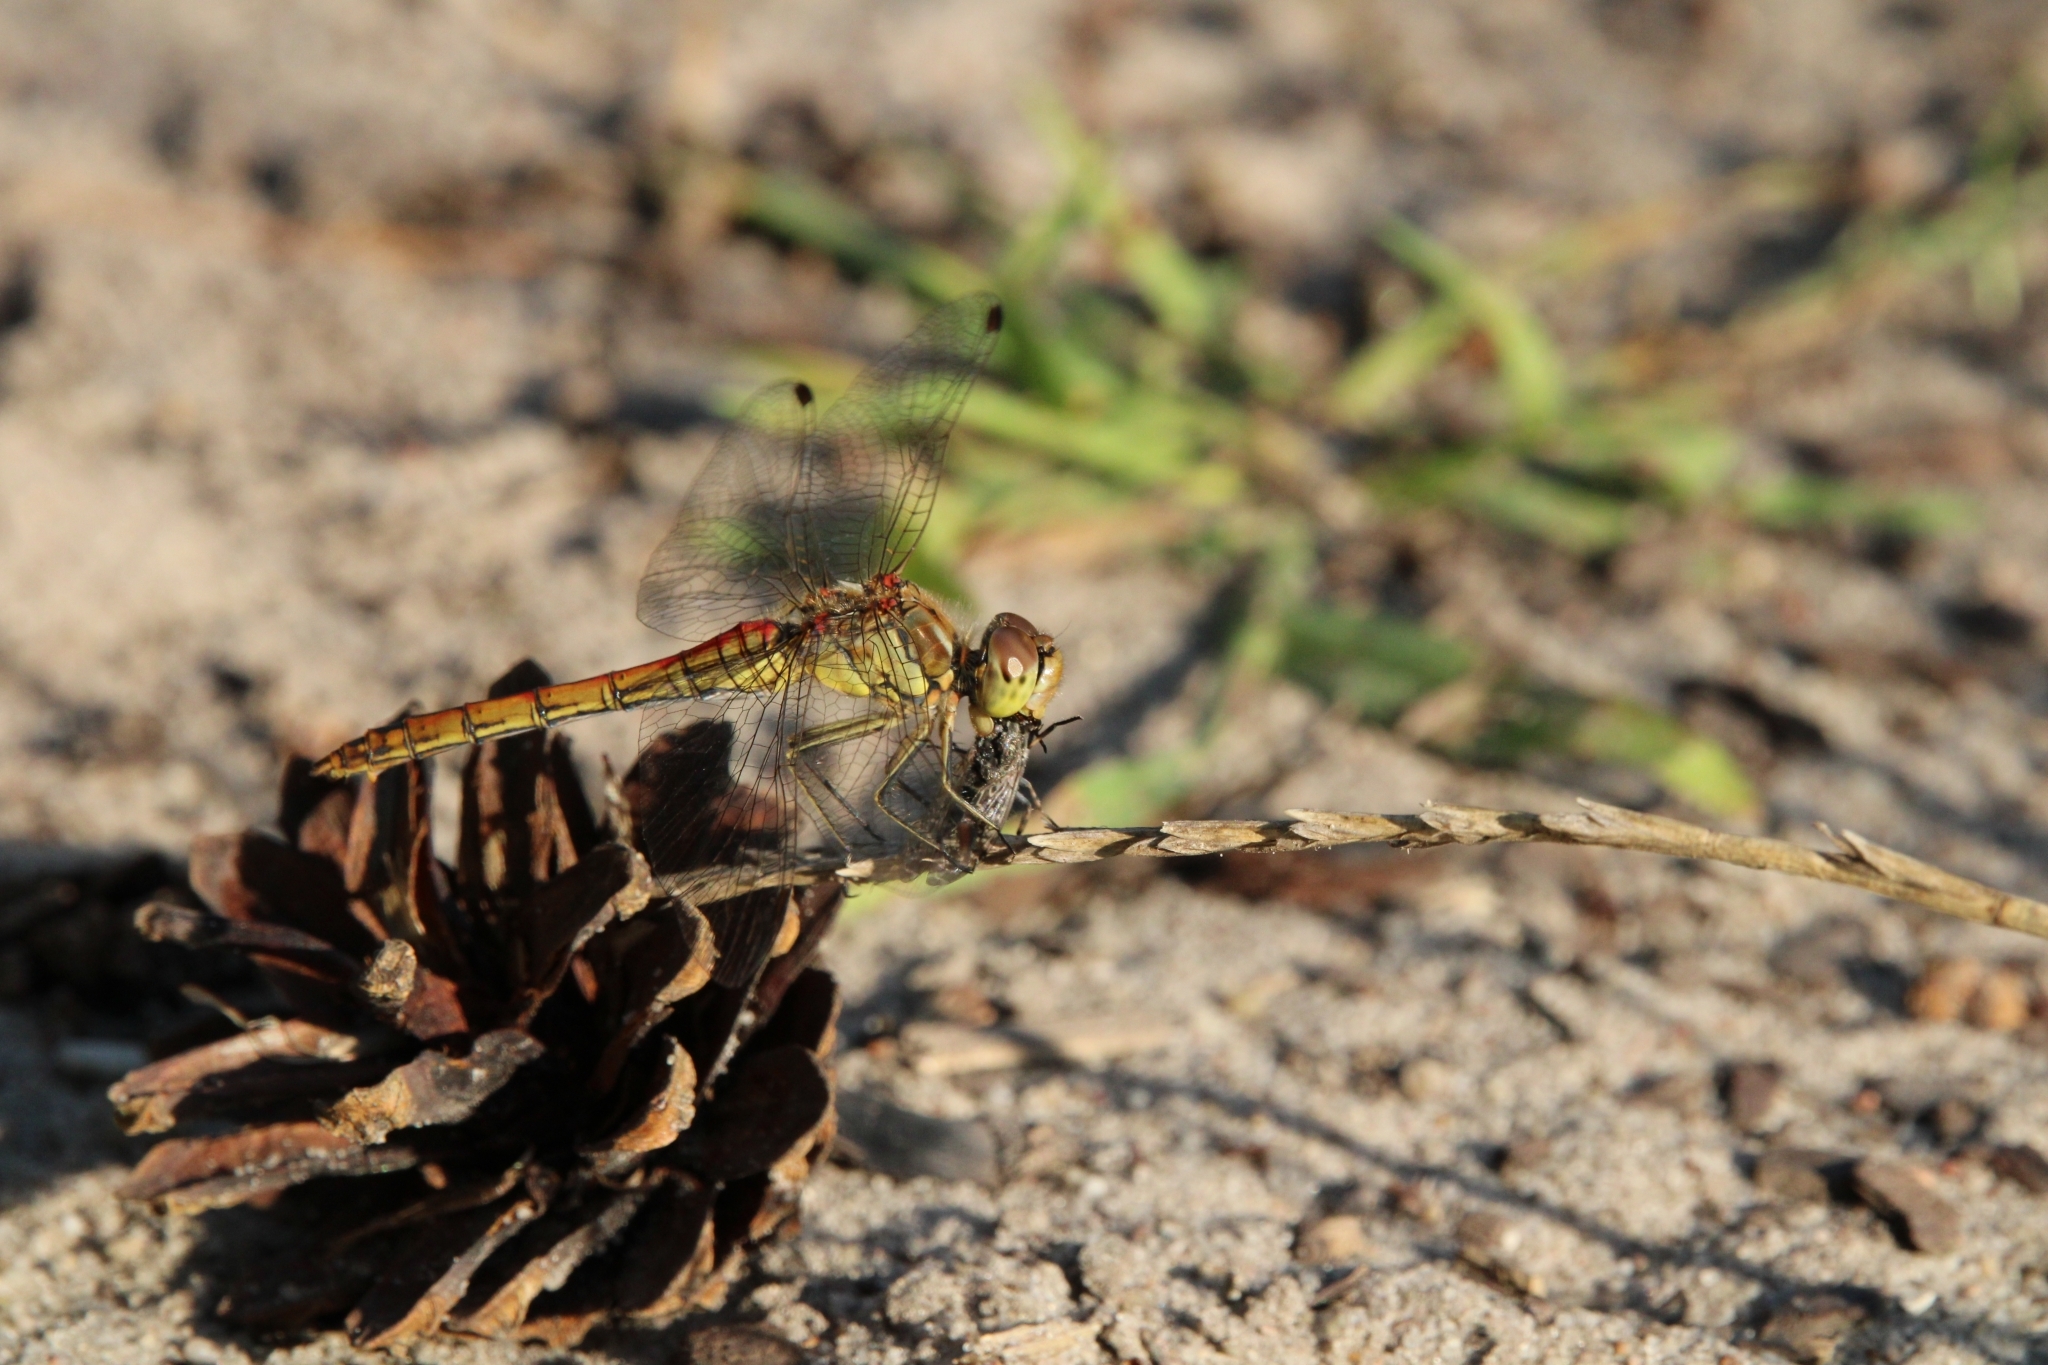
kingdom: Animalia
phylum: Arthropoda
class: Insecta
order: Odonata
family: Libellulidae
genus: Sympetrum
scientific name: Sympetrum vulgatum
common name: Vagrant darter
